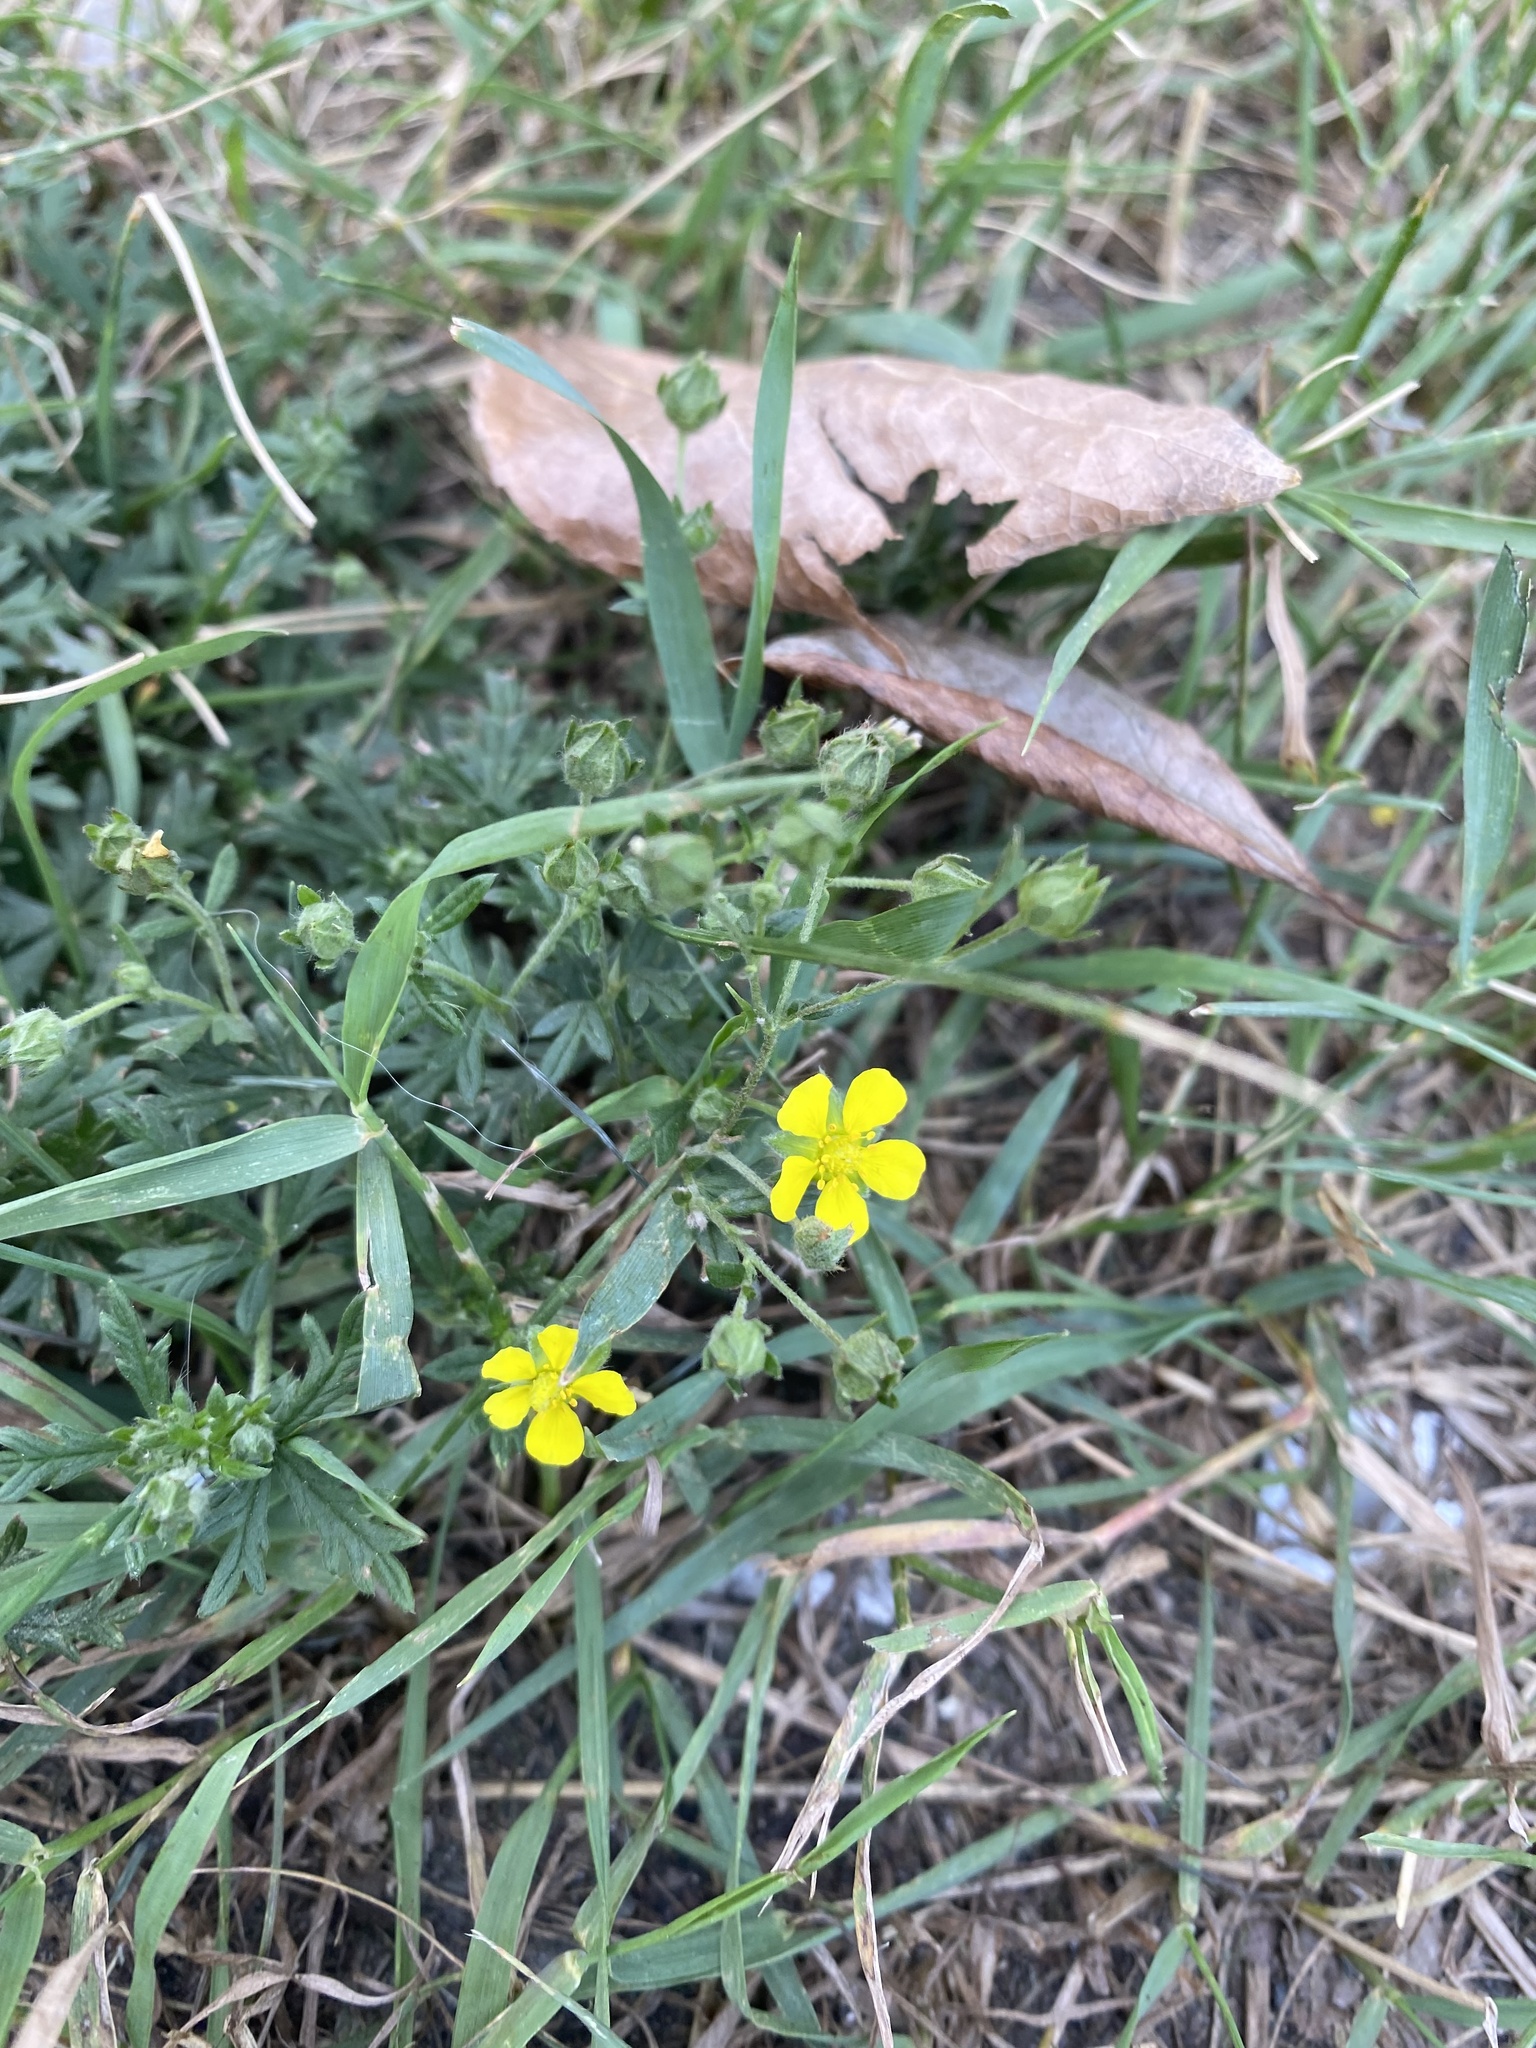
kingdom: Plantae
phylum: Tracheophyta
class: Magnoliopsida
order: Rosales
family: Rosaceae
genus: Potentilla
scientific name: Potentilla argentea
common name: Hoary cinquefoil
